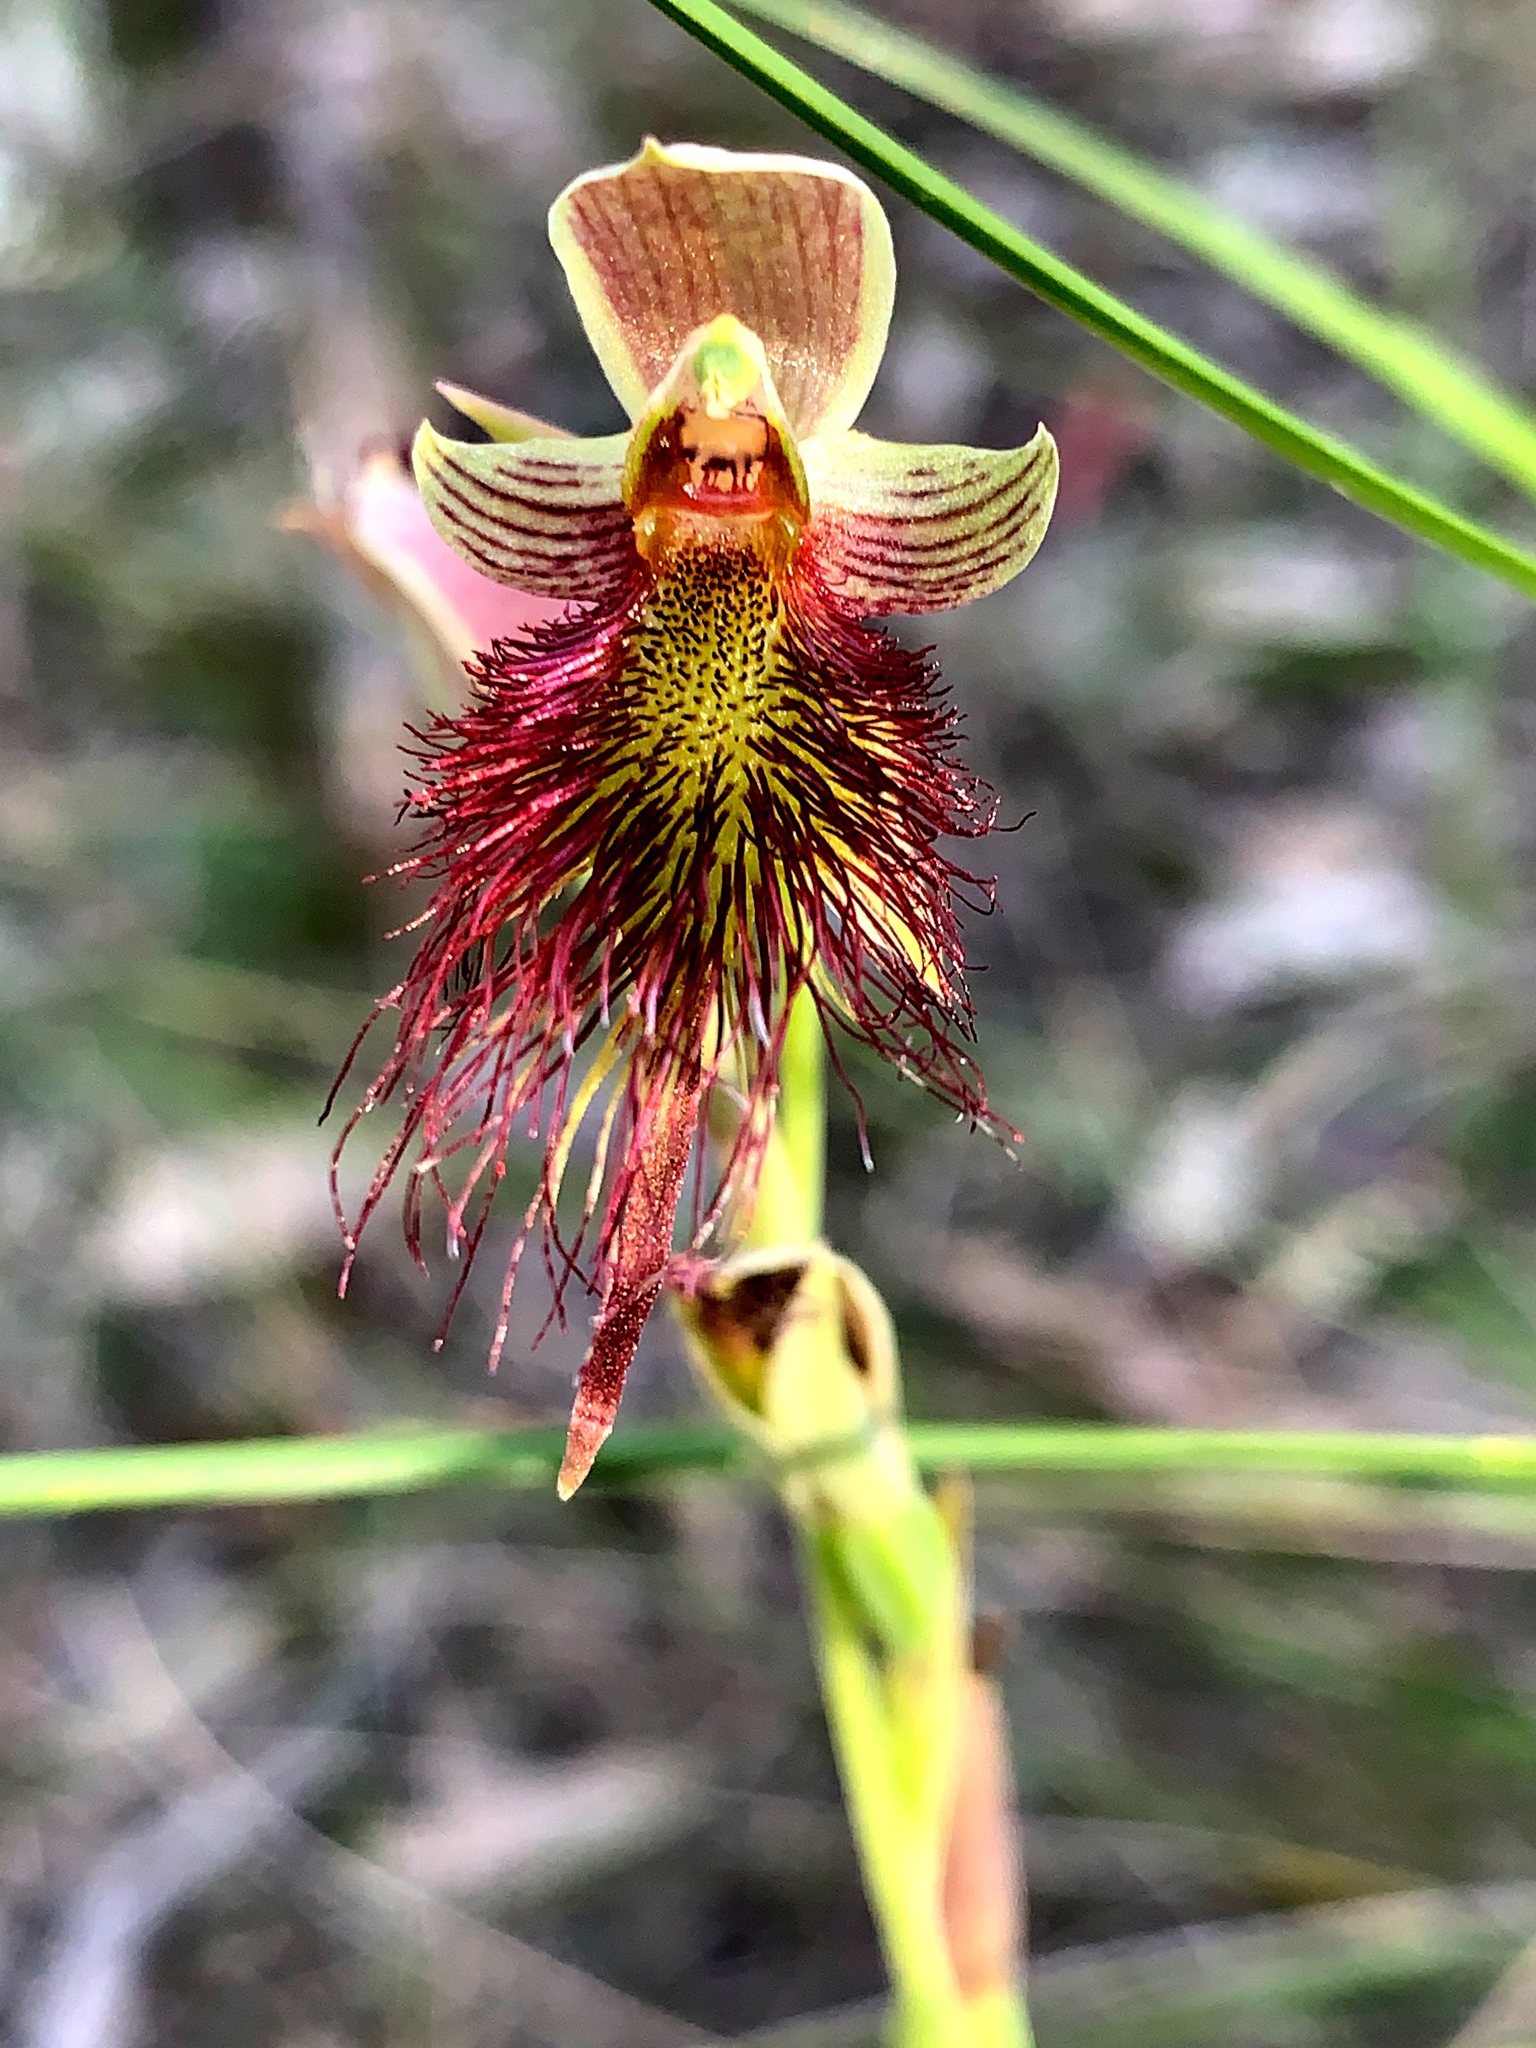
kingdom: Plantae
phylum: Tracheophyta
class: Liliopsida
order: Asparagales
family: Orchidaceae
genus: Calochilus
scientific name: Calochilus paludosus
